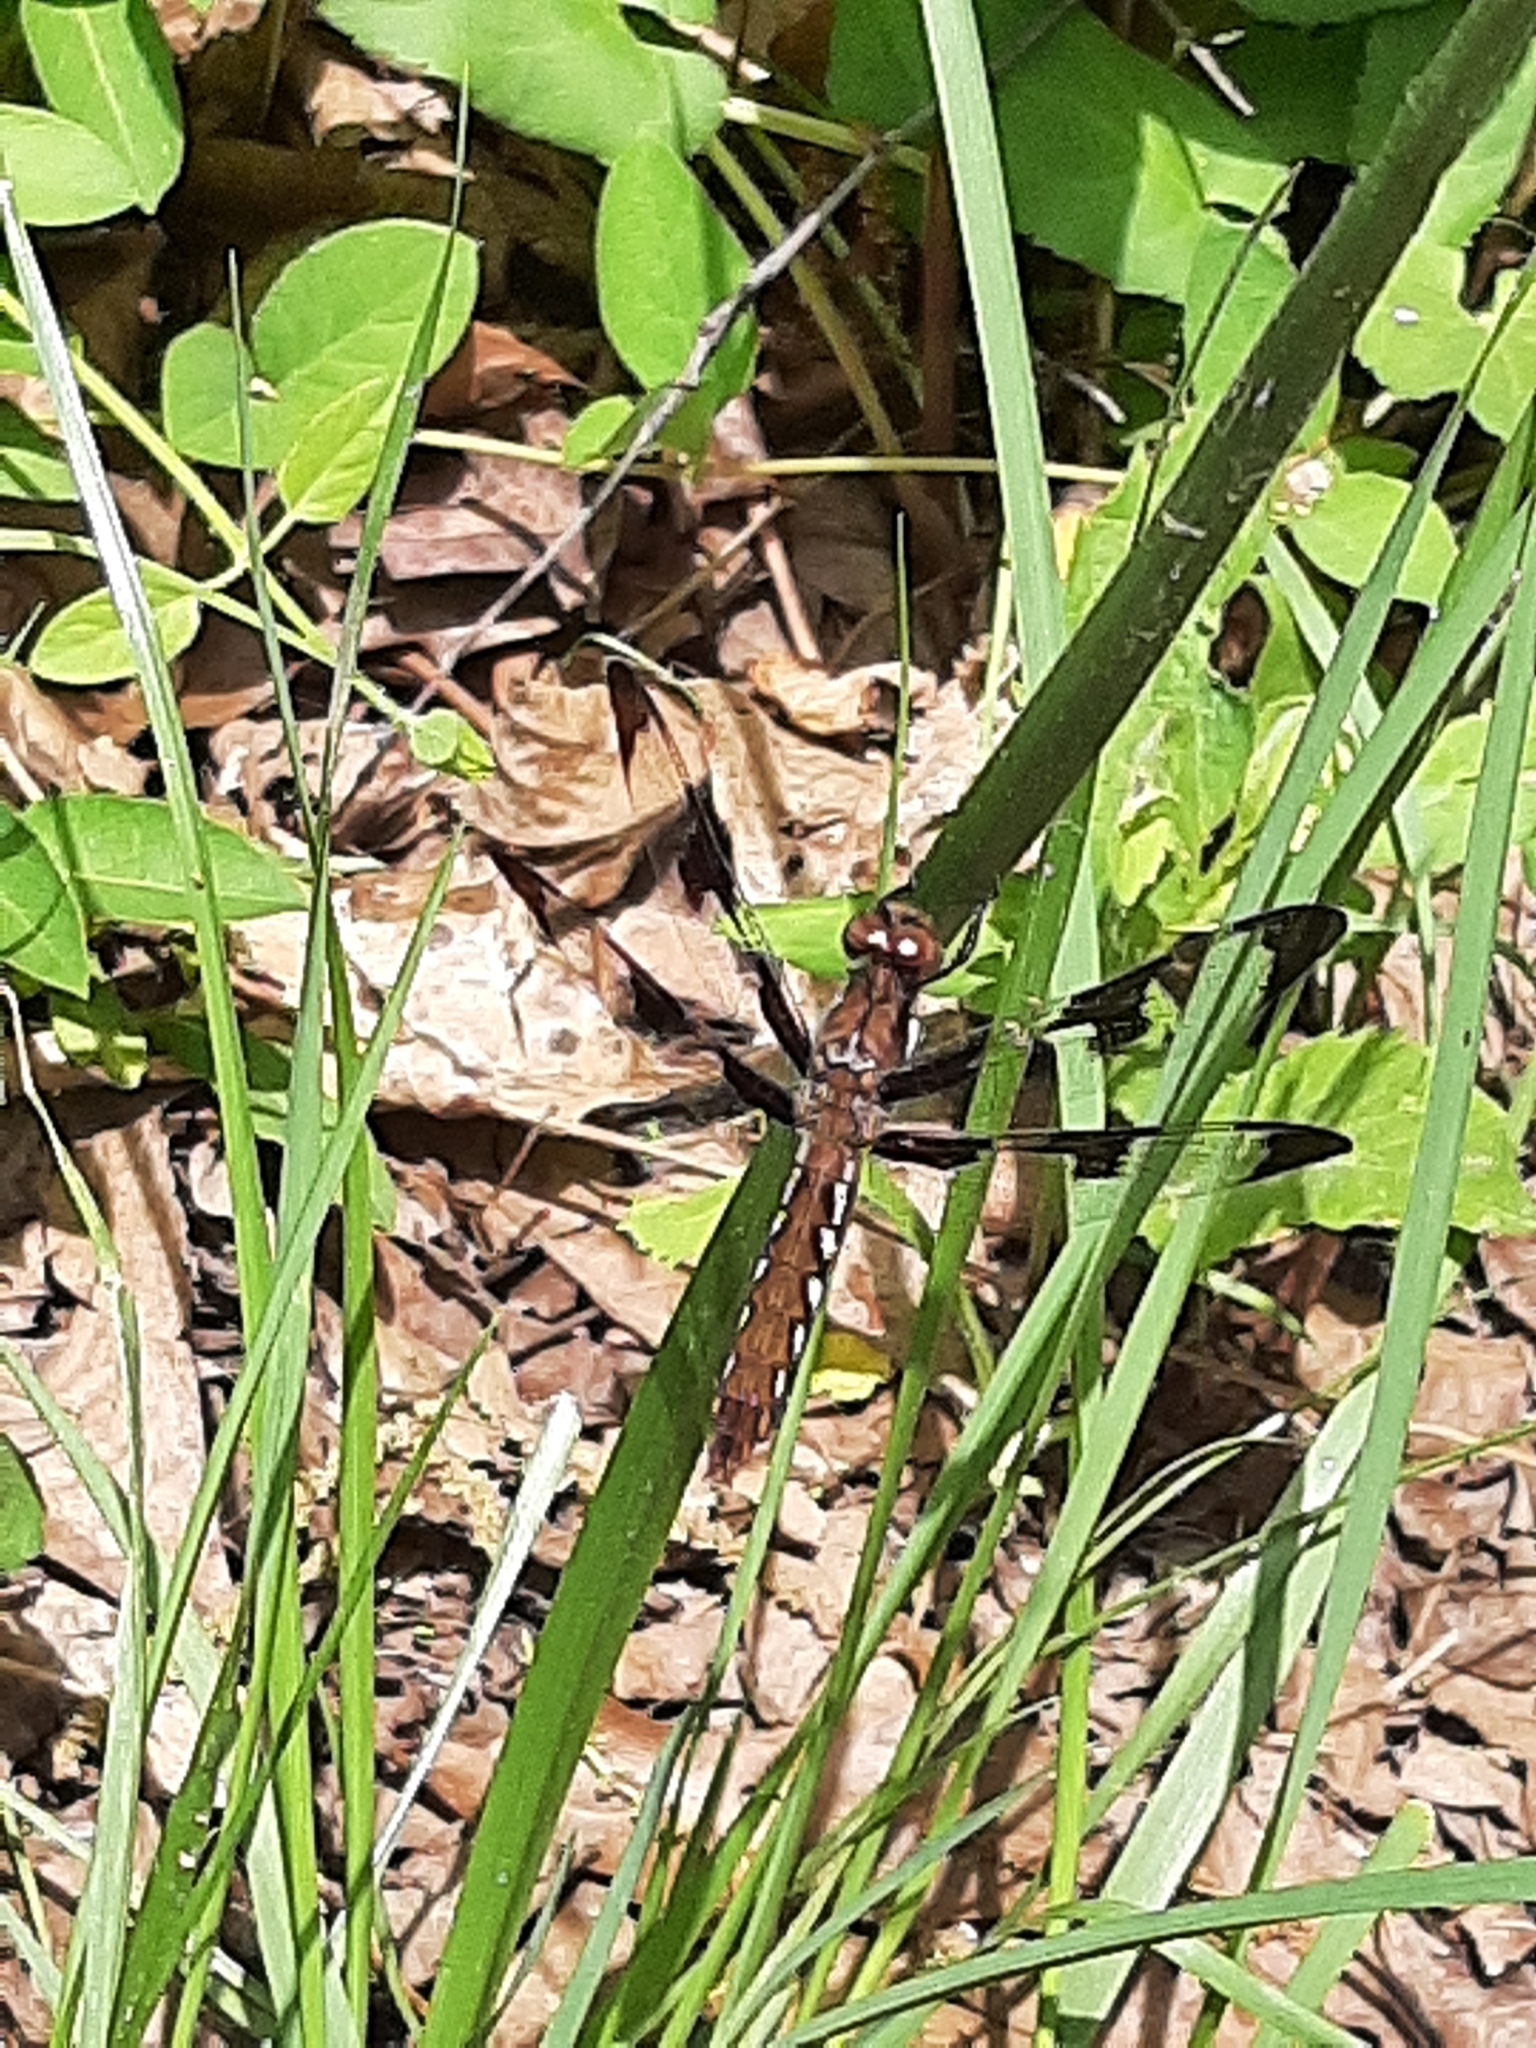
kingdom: Animalia
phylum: Arthropoda
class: Insecta
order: Odonata
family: Libellulidae
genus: Plathemis
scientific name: Plathemis lydia
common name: Common whitetail
